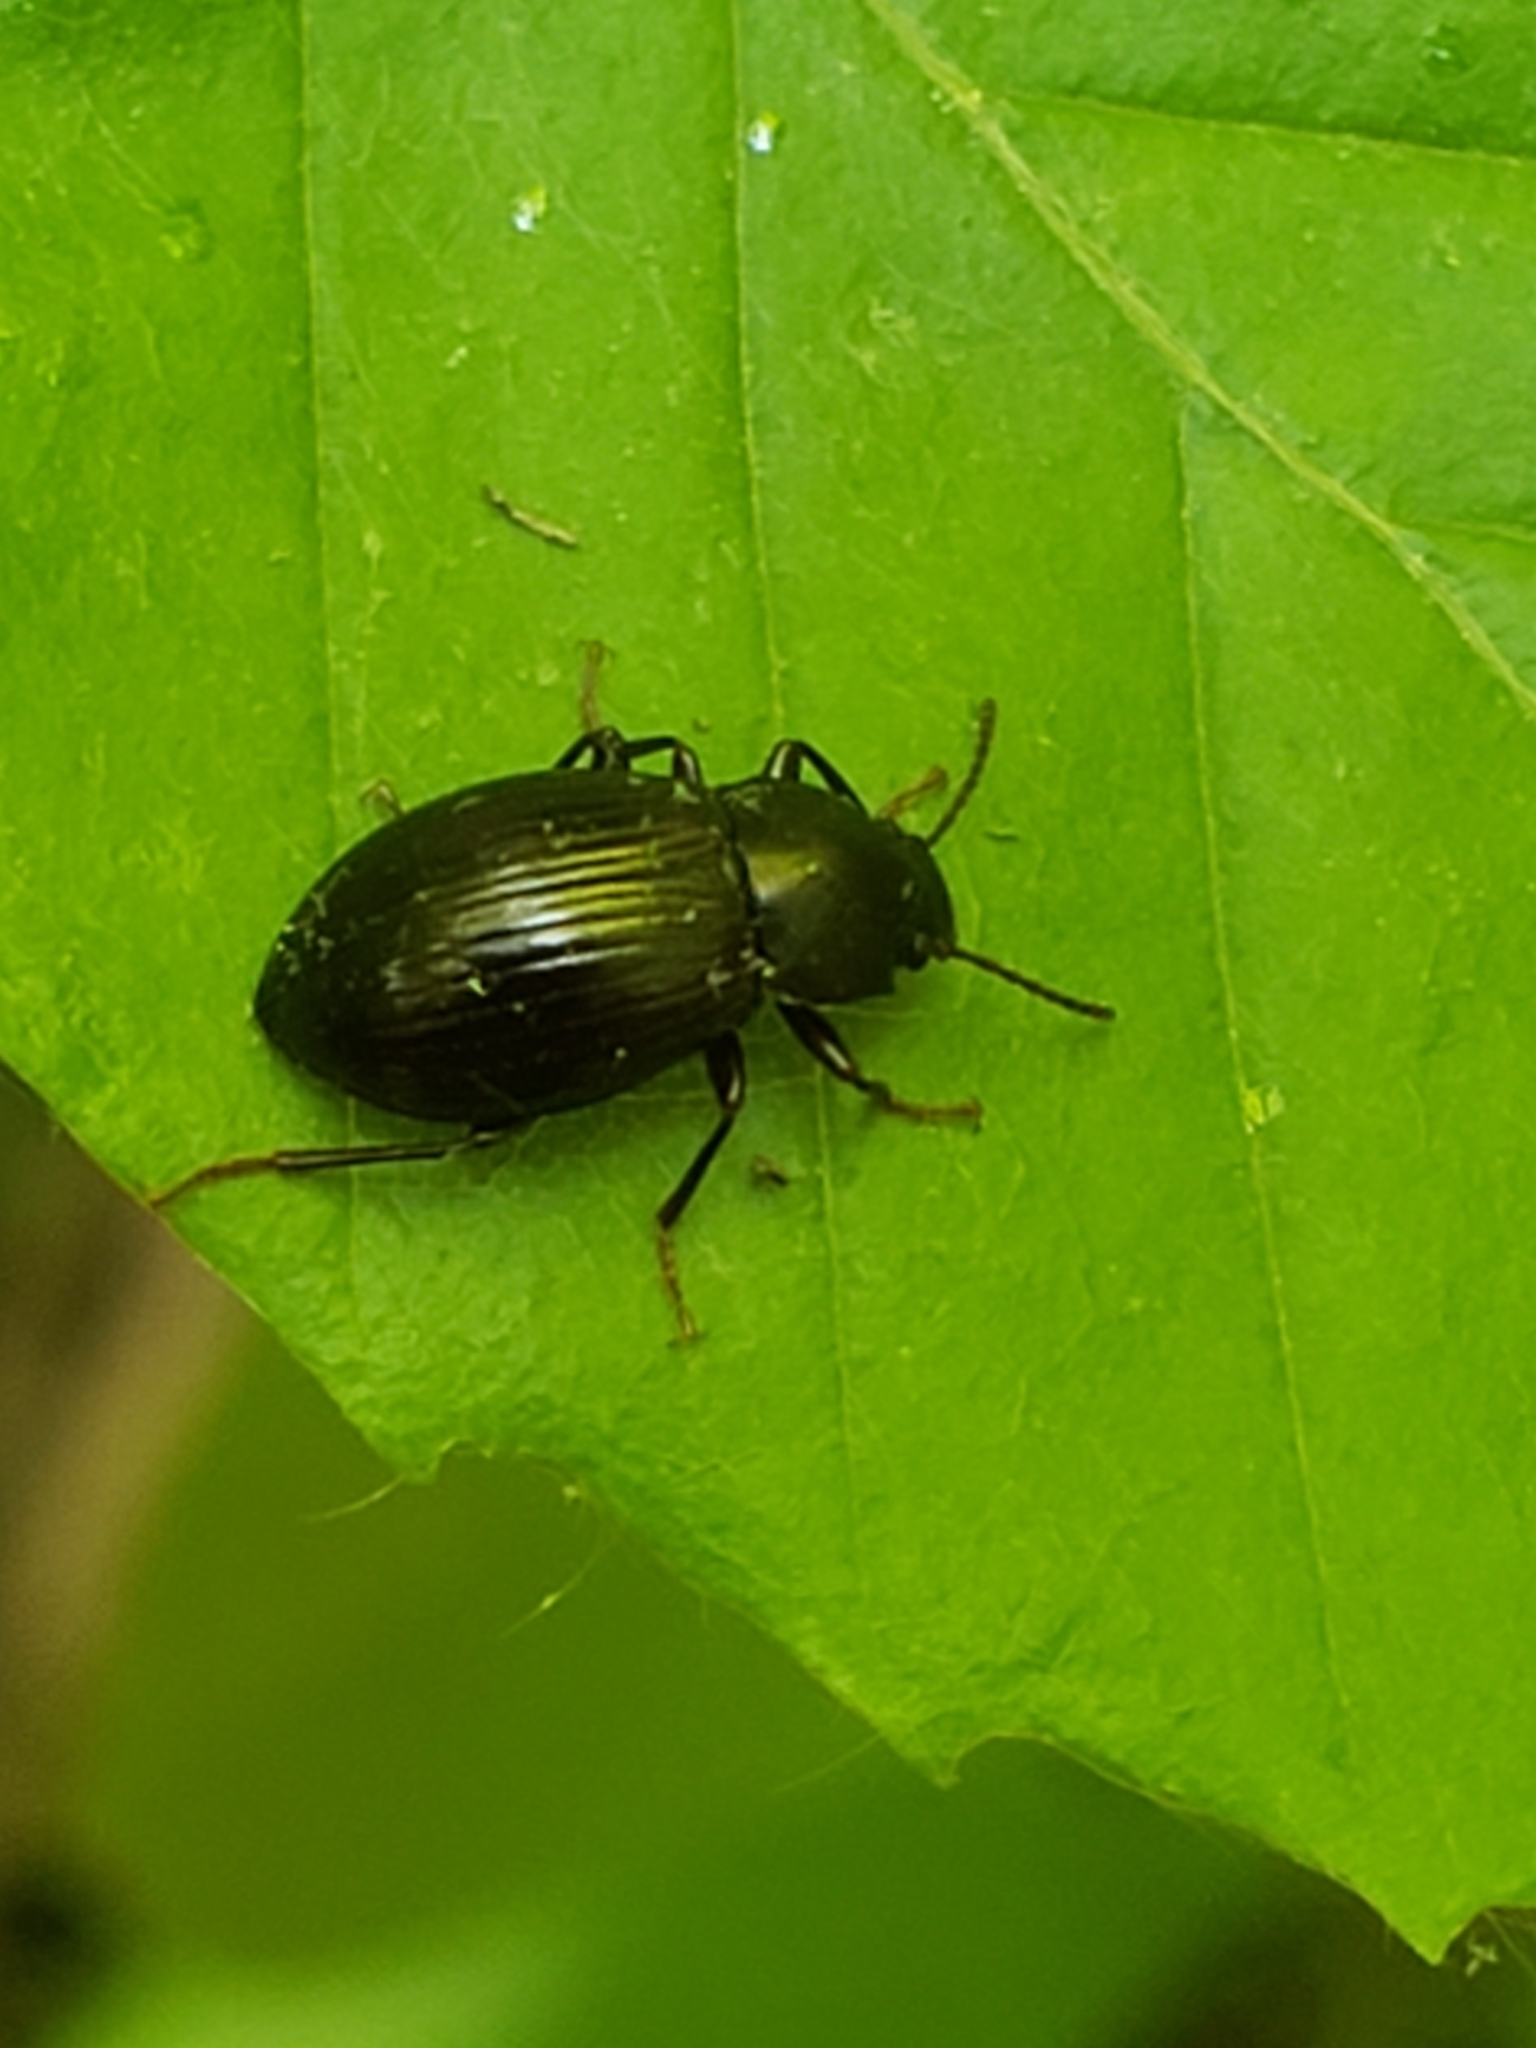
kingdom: Animalia
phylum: Arthropoda
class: Insecta
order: Coleoptera
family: Tenebrionidae
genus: Nalassus
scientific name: Nalassus aereus
